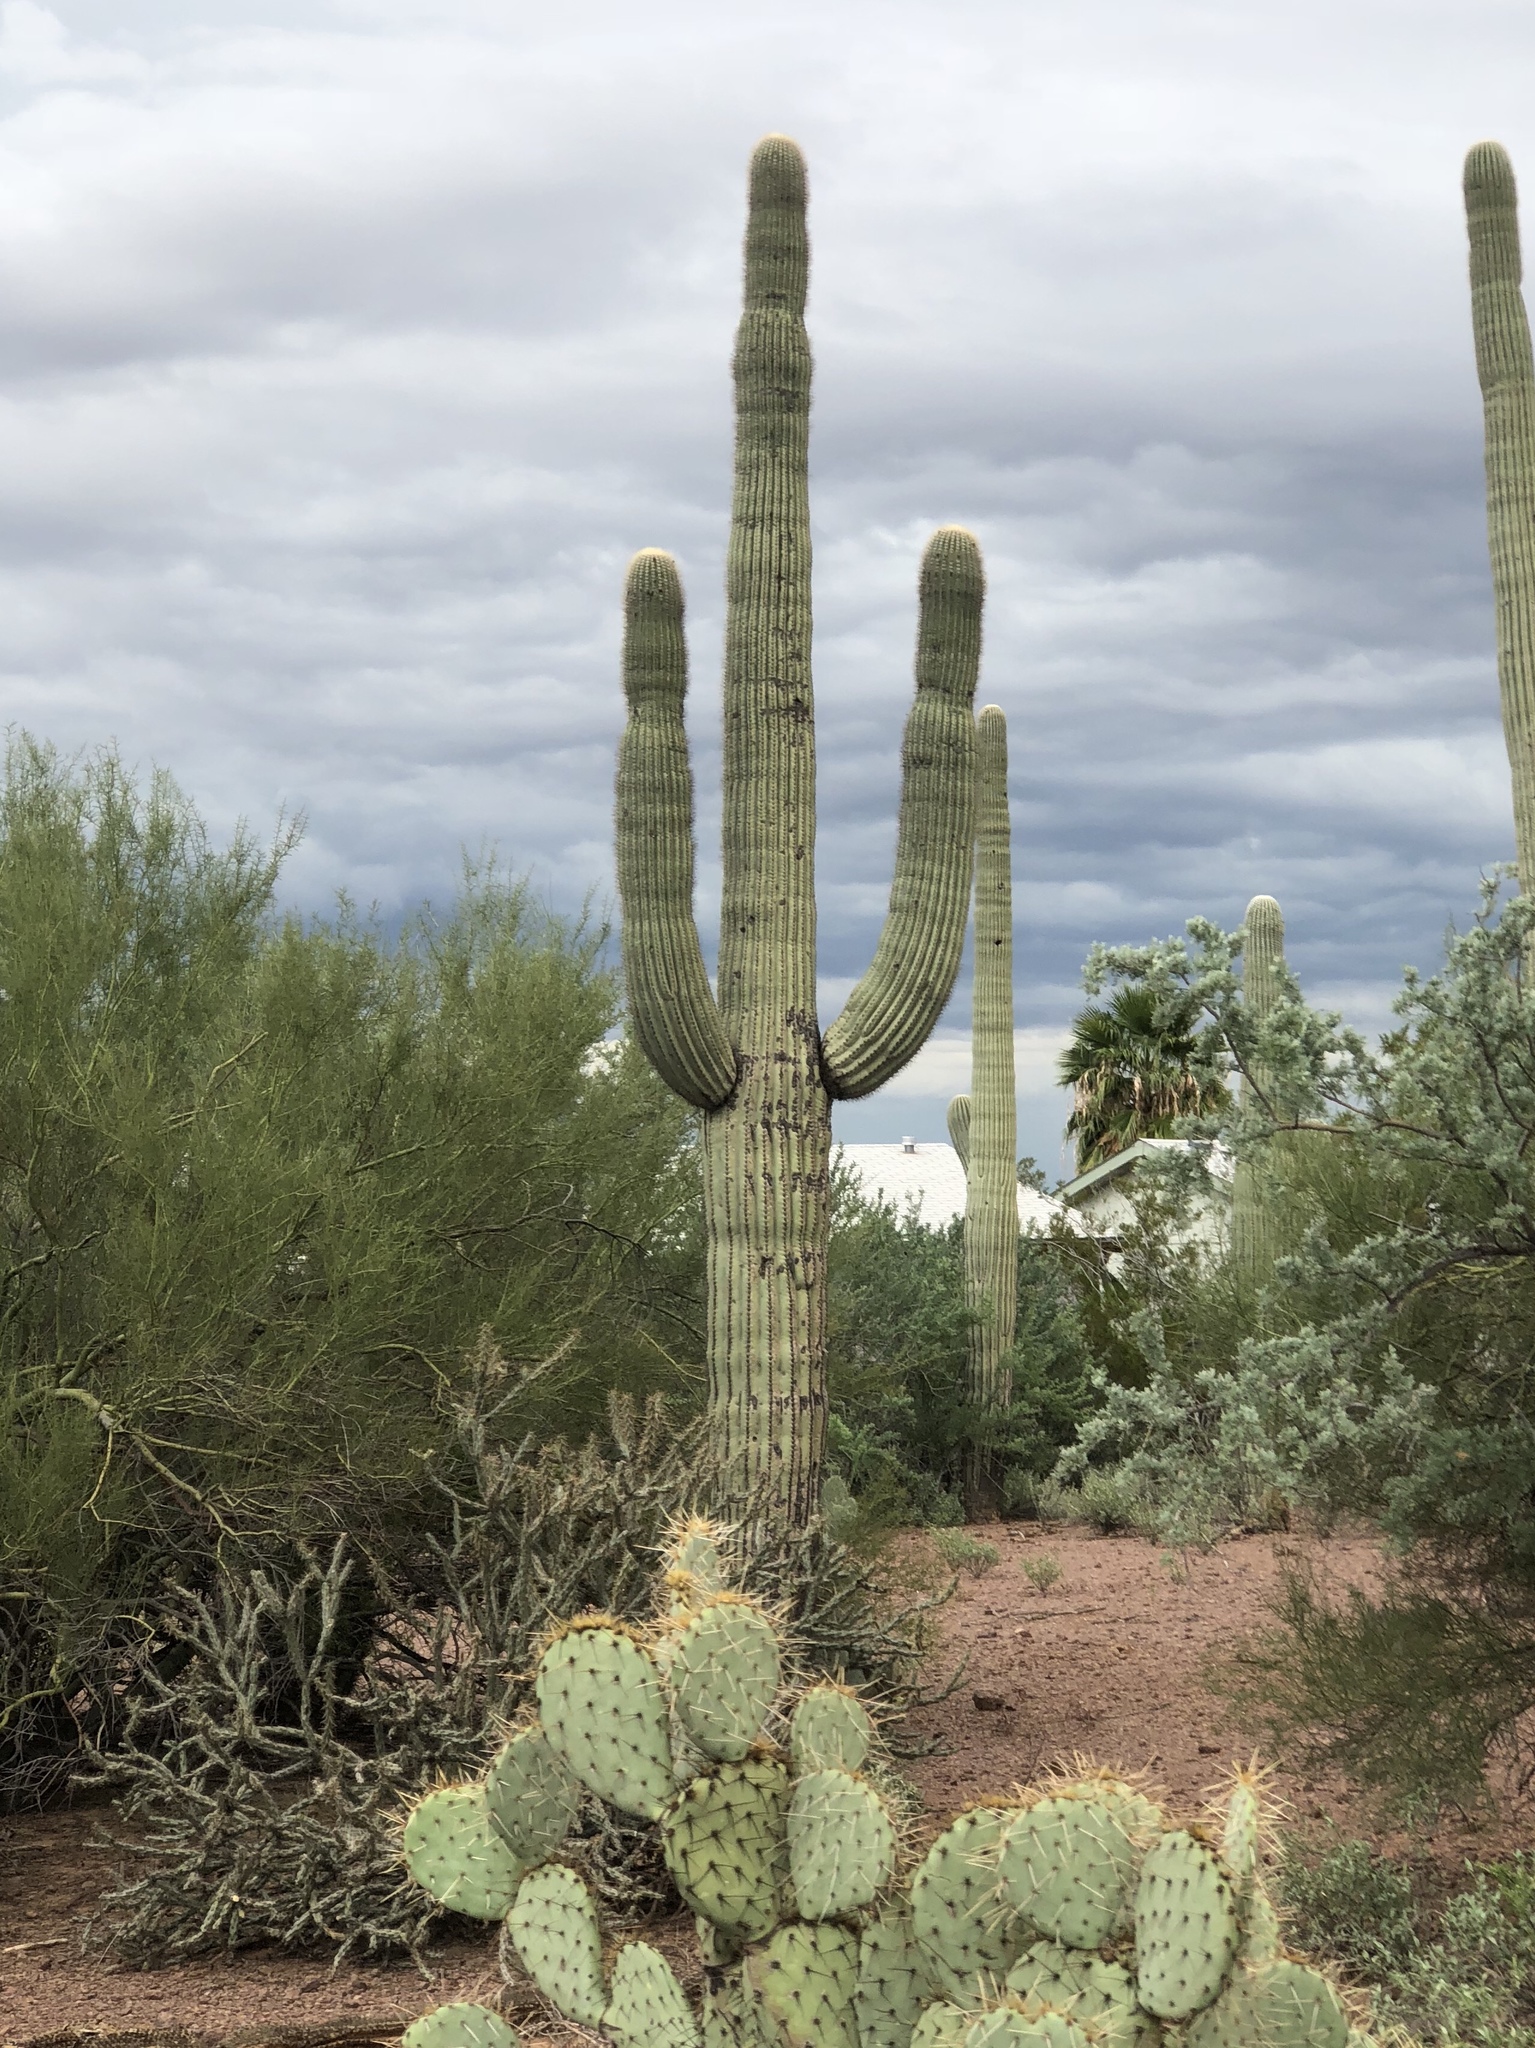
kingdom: Plantae
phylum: Tracheophyta
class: Magnoliopsida
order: Caryophyllales
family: Cactaceae
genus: Carnegiea
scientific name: Carnegiea gigantea
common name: Saguaro
